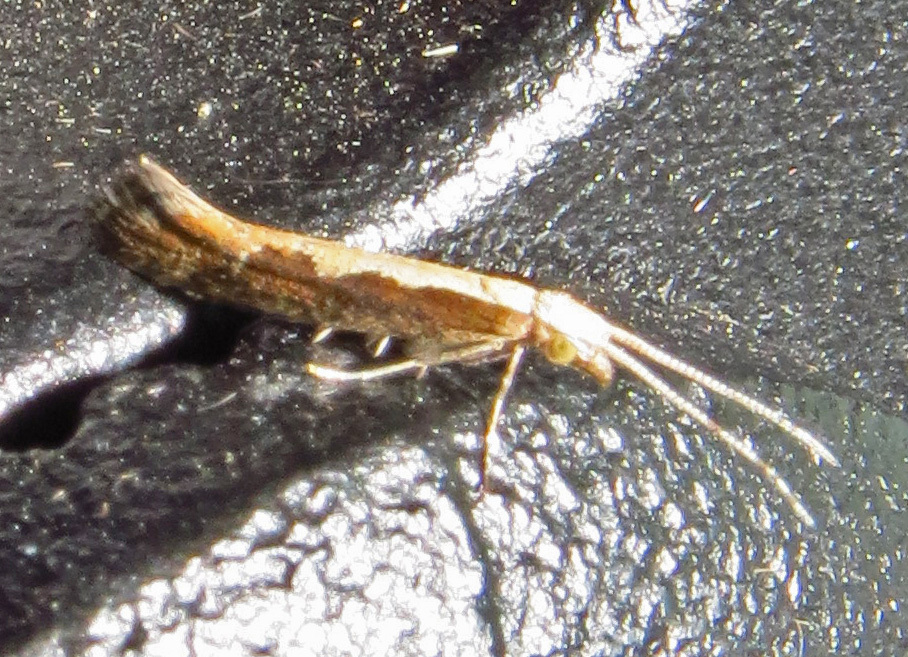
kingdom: Animalia
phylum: Arthropoda
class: Insecta
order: Lepidoptera
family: Plutellidae
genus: Plutella
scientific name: Plutella xylostella
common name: Diamond-back moth
